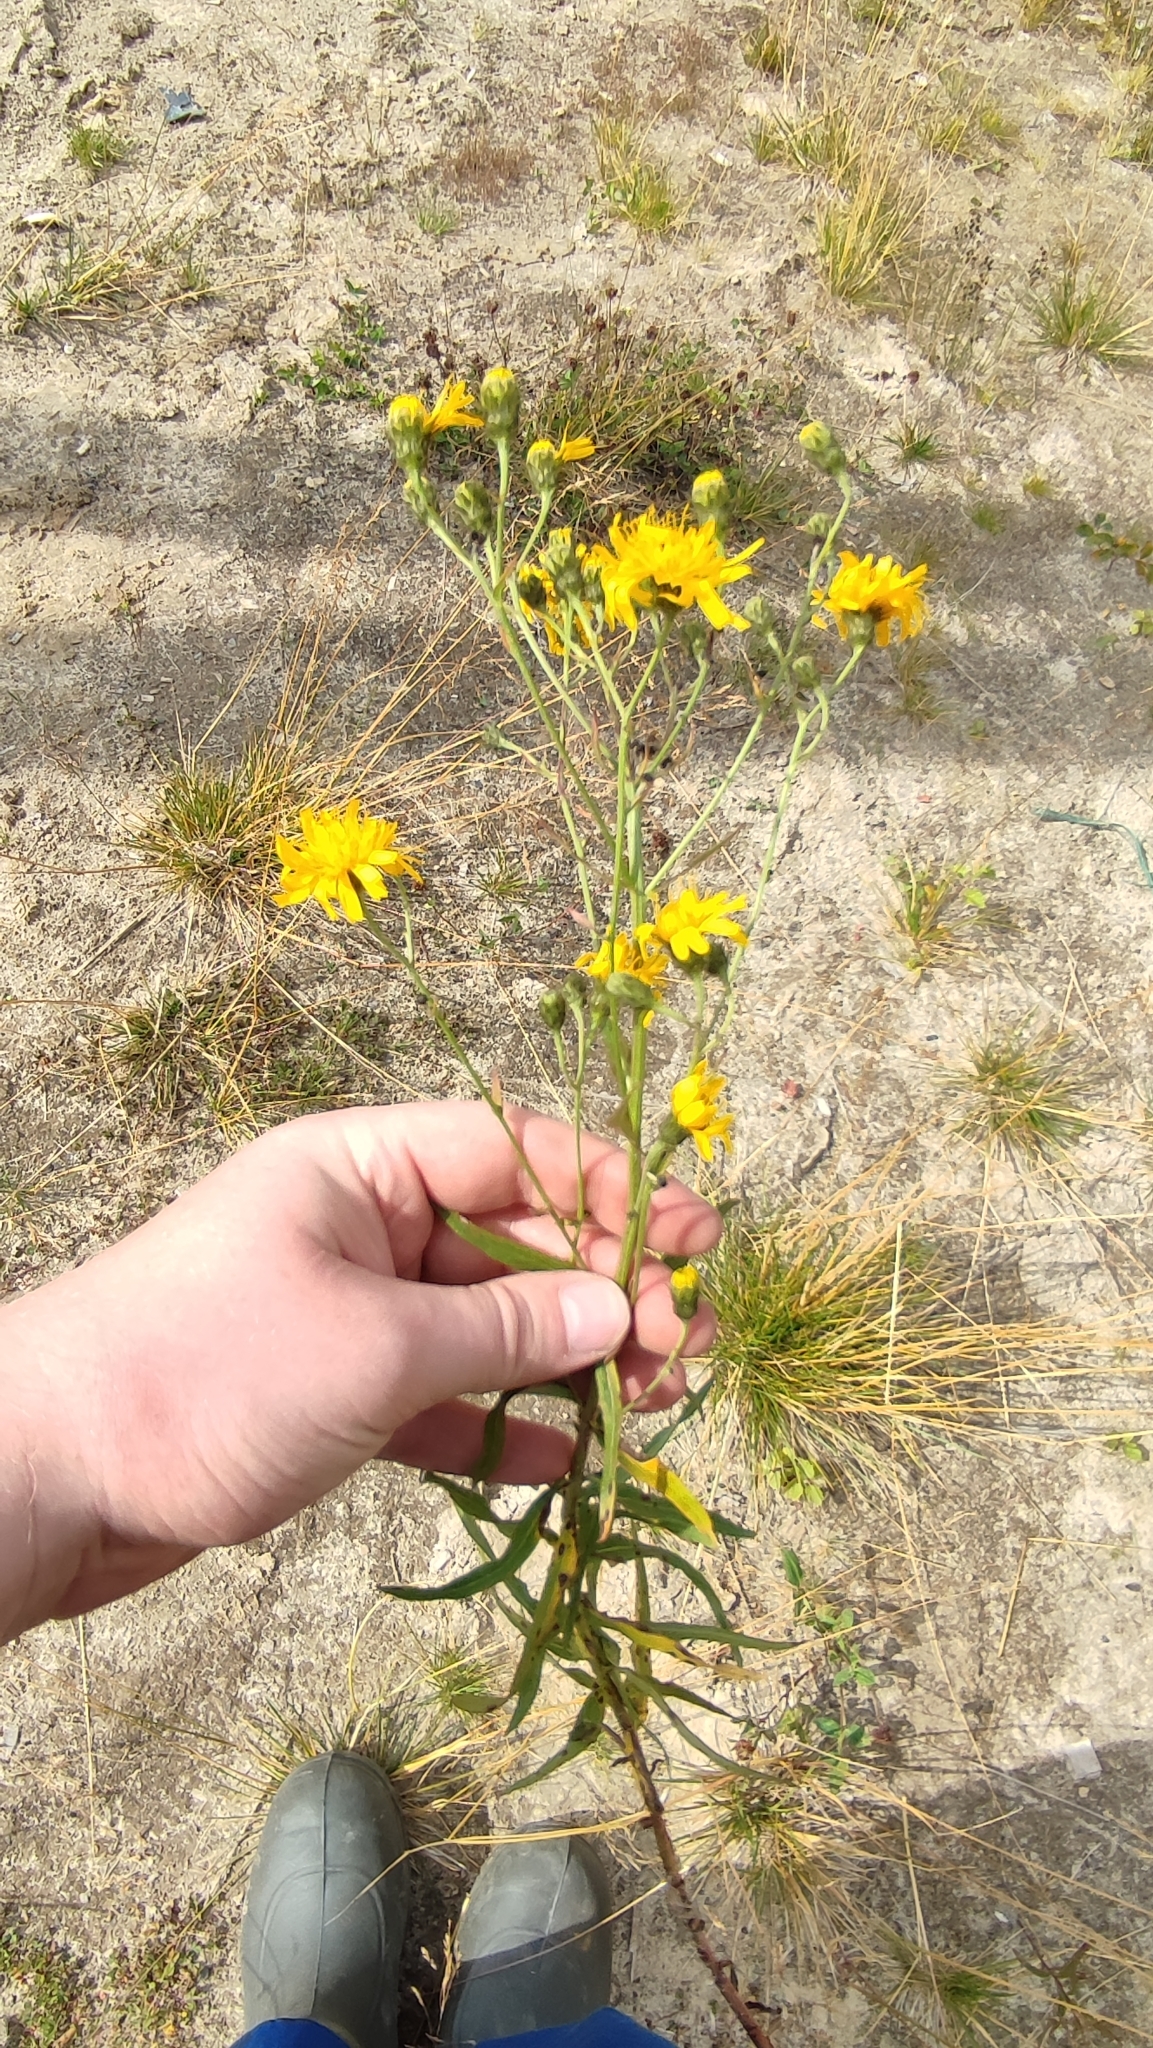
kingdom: Plantae
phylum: Tracheophyta
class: Magnoliopsida
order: Asterales
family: Asteraceae
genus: Hieracium
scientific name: Hieracium umbellatum
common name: Northern hawkweed
